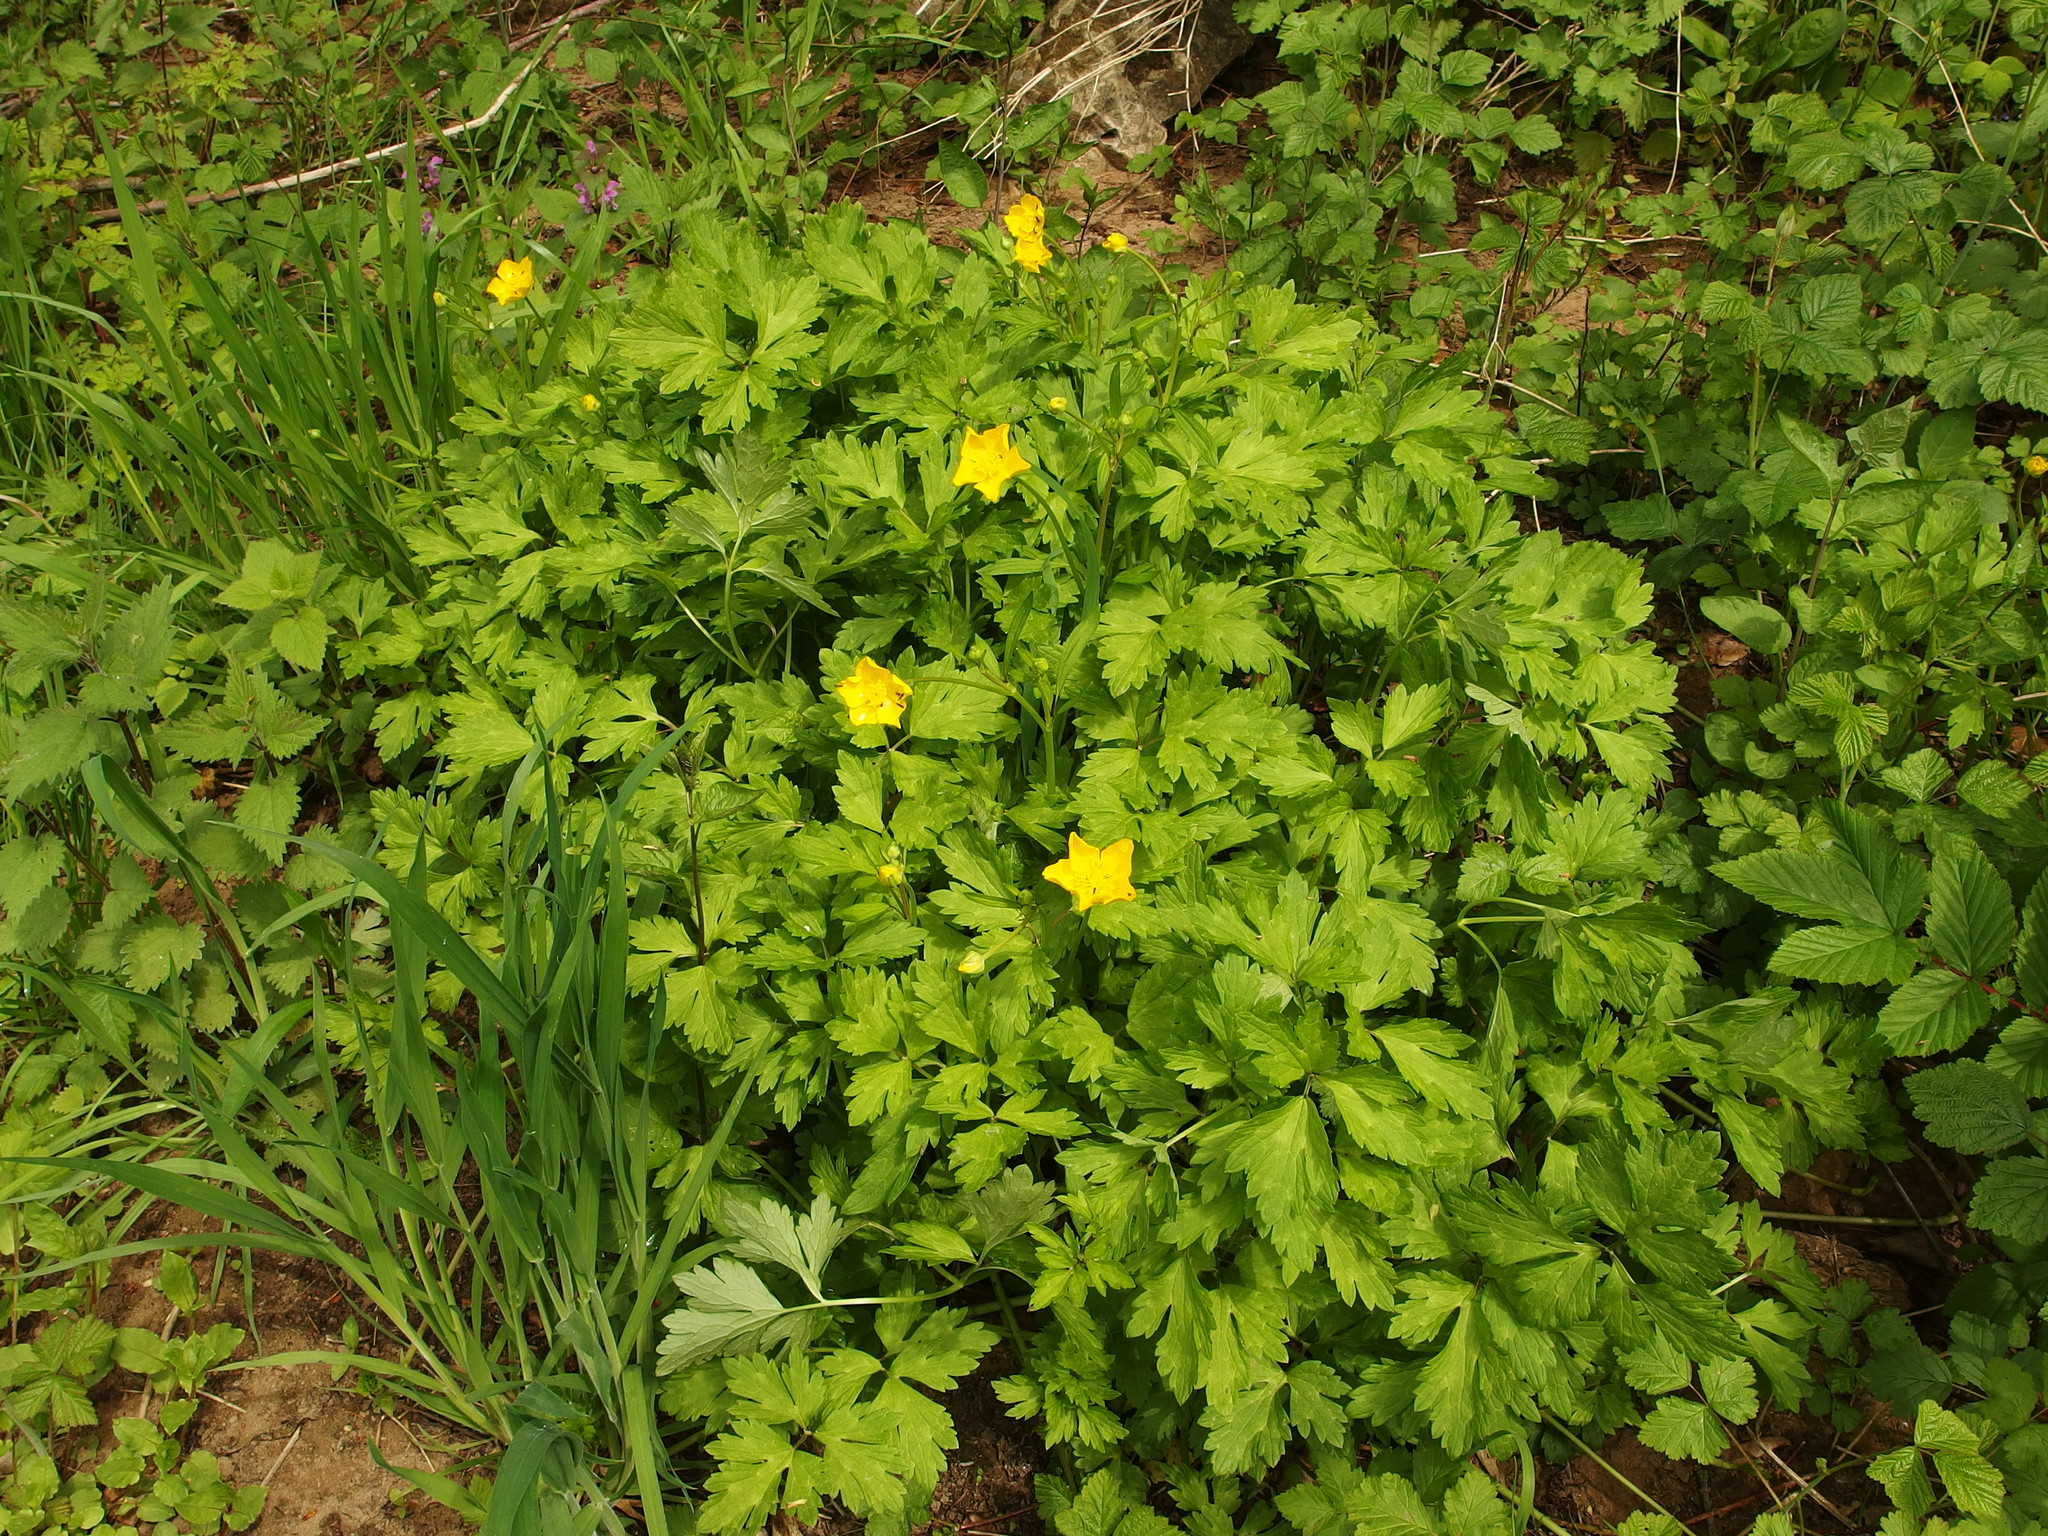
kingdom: Plantae
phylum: Tracheophyta
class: Magnoliopsida
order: Ranunculales
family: Ranunculaceae
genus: Ranunculus
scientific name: Ranunculus repens
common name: Creeping buttercup
